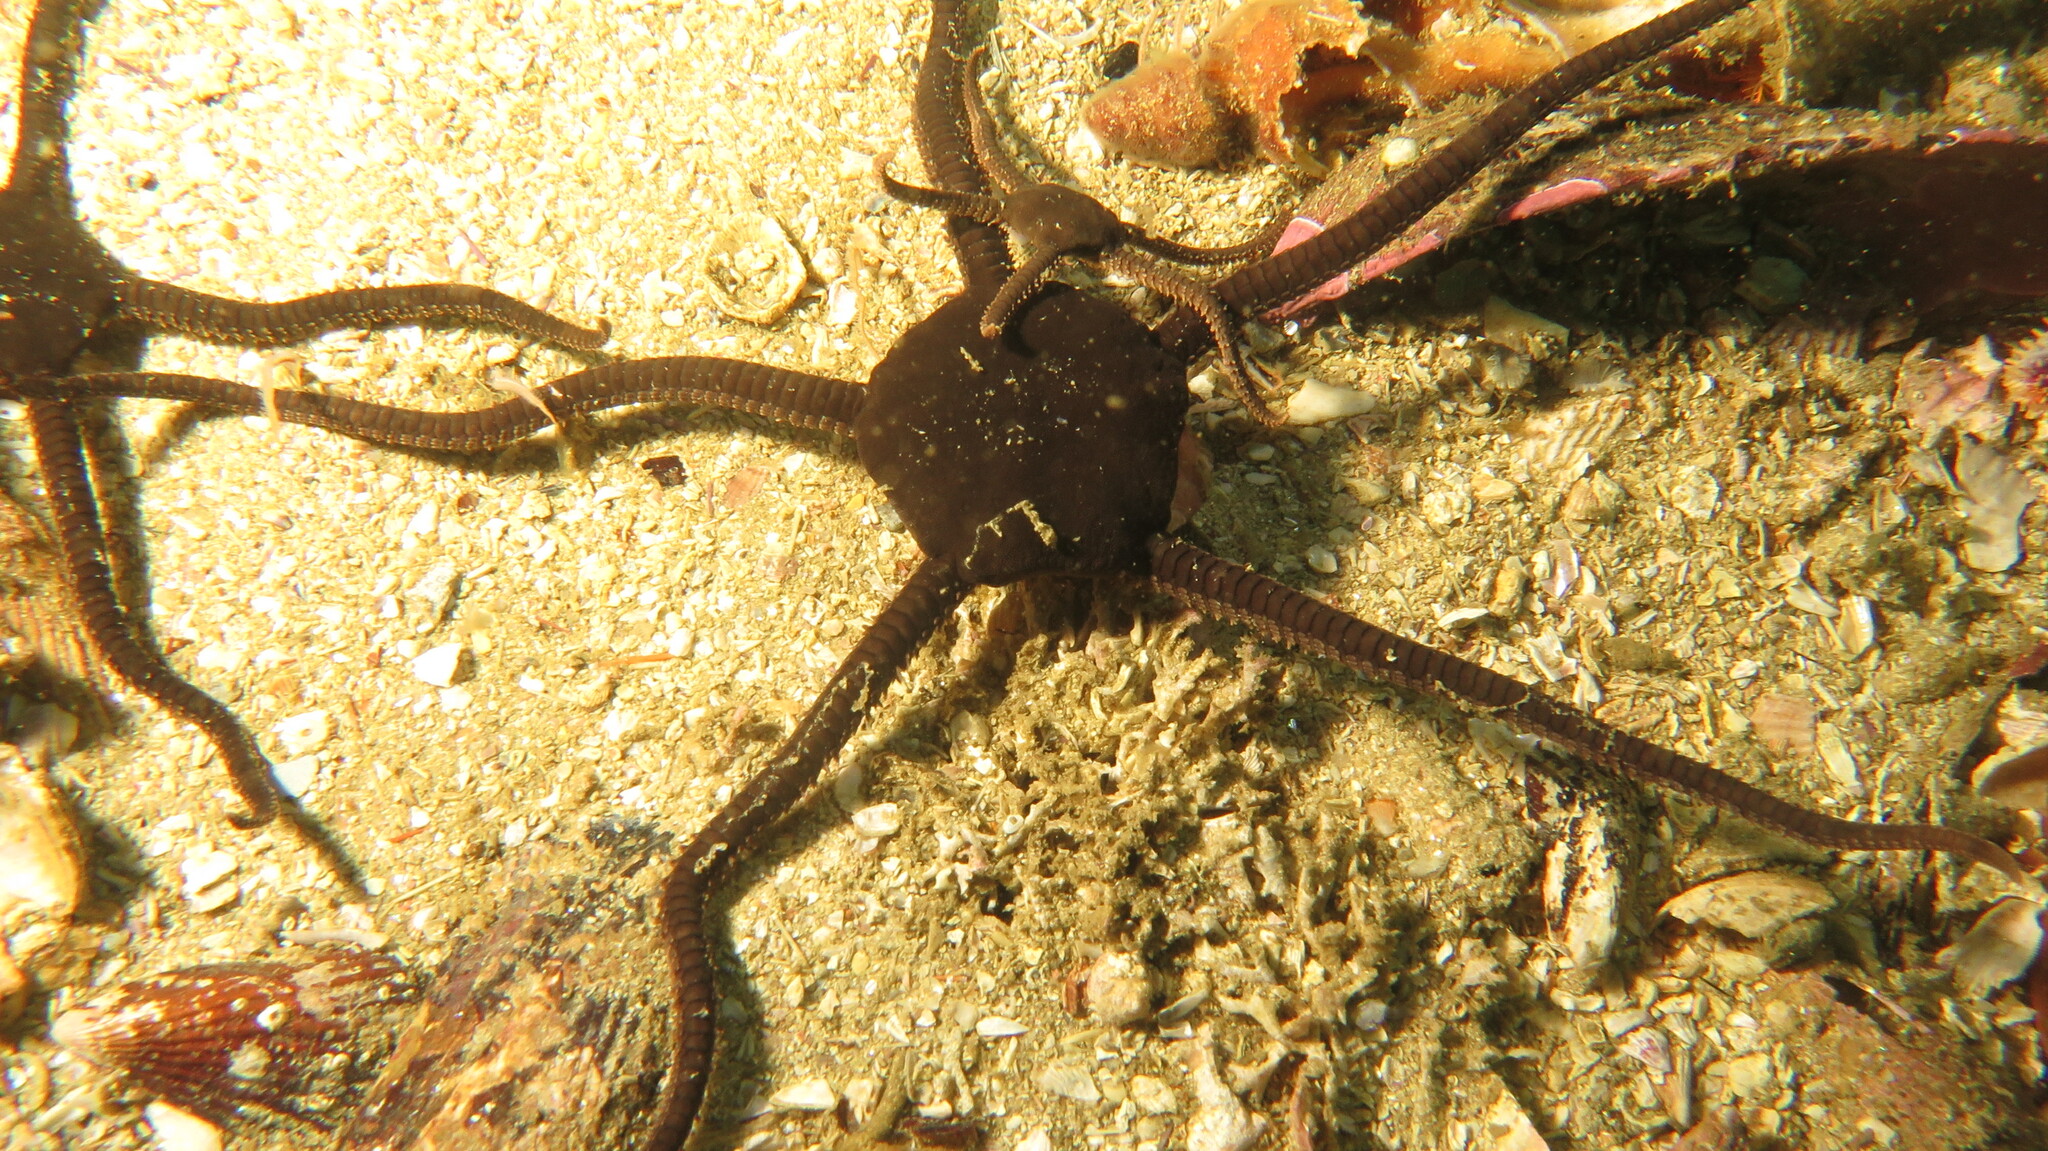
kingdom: Animalia
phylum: Echinodermata
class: Ophiuroidea
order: Ophiacanthida
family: Ophiodermatidae
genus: Ophioderma
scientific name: Ophioderma wahlbergii
